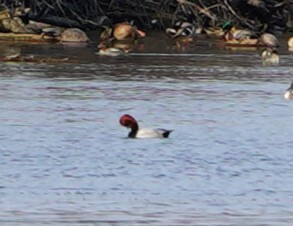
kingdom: Animalia
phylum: Chordata
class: Aves
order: Anseriformes
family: Anatidae
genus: Aythya
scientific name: Aythya ferina
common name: Common pochard
